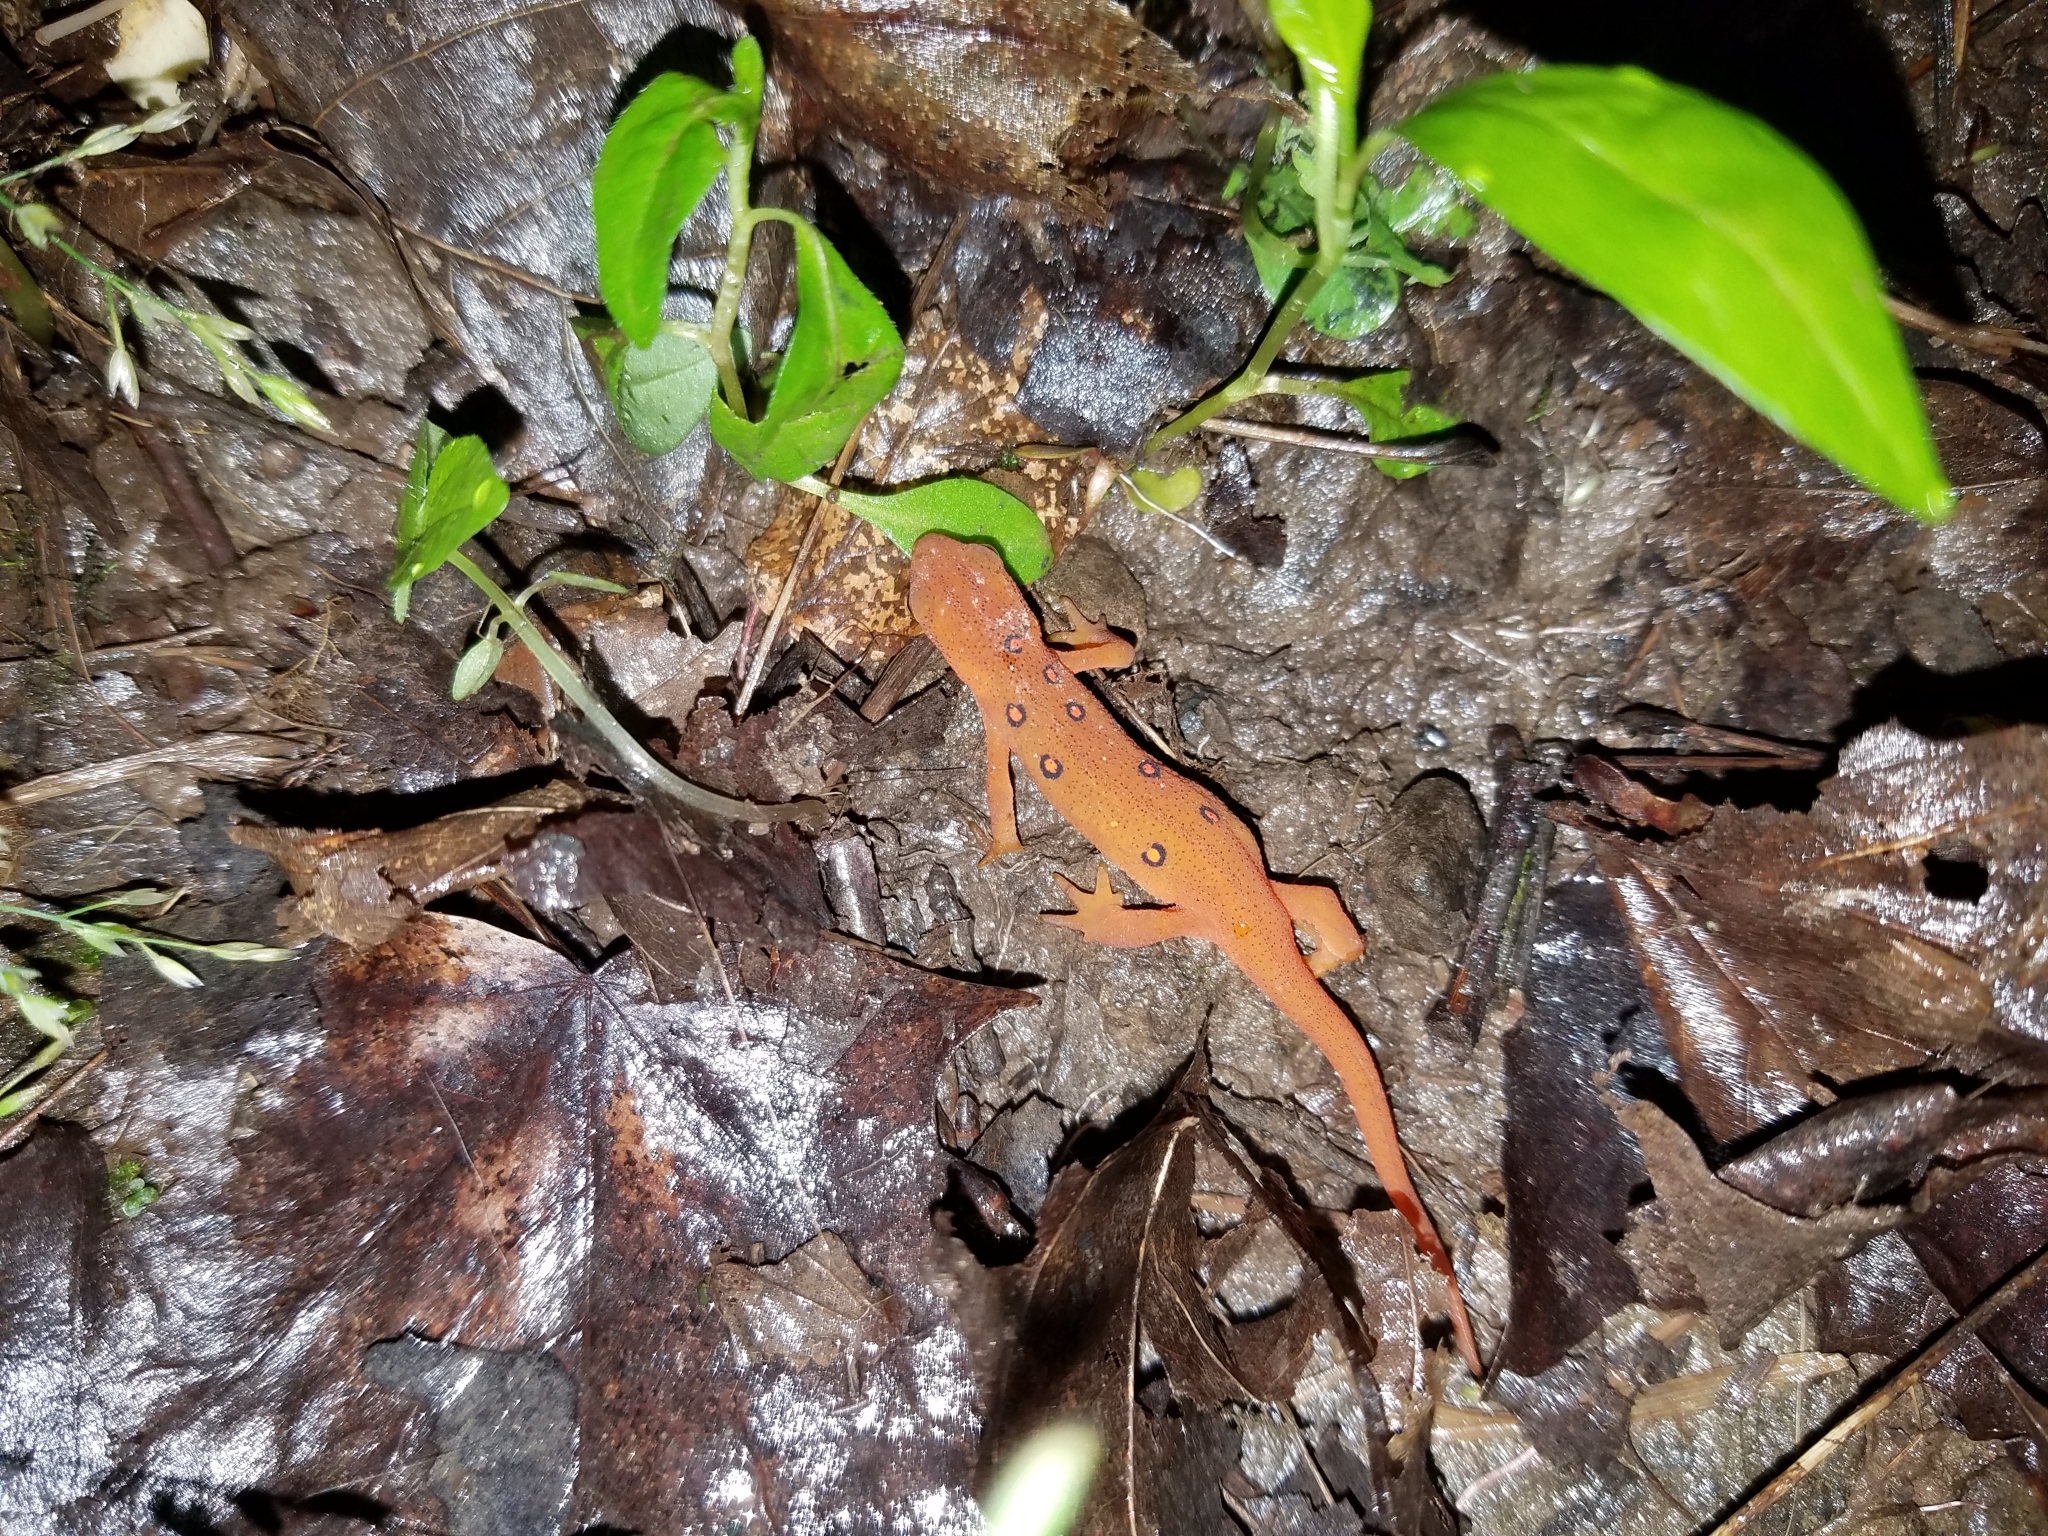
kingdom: Animalia
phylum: Chordata
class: Amphibia
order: Caudata
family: Salamandridae
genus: Notophthalmus
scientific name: Notophthalmus viridescens
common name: Eastern newt
